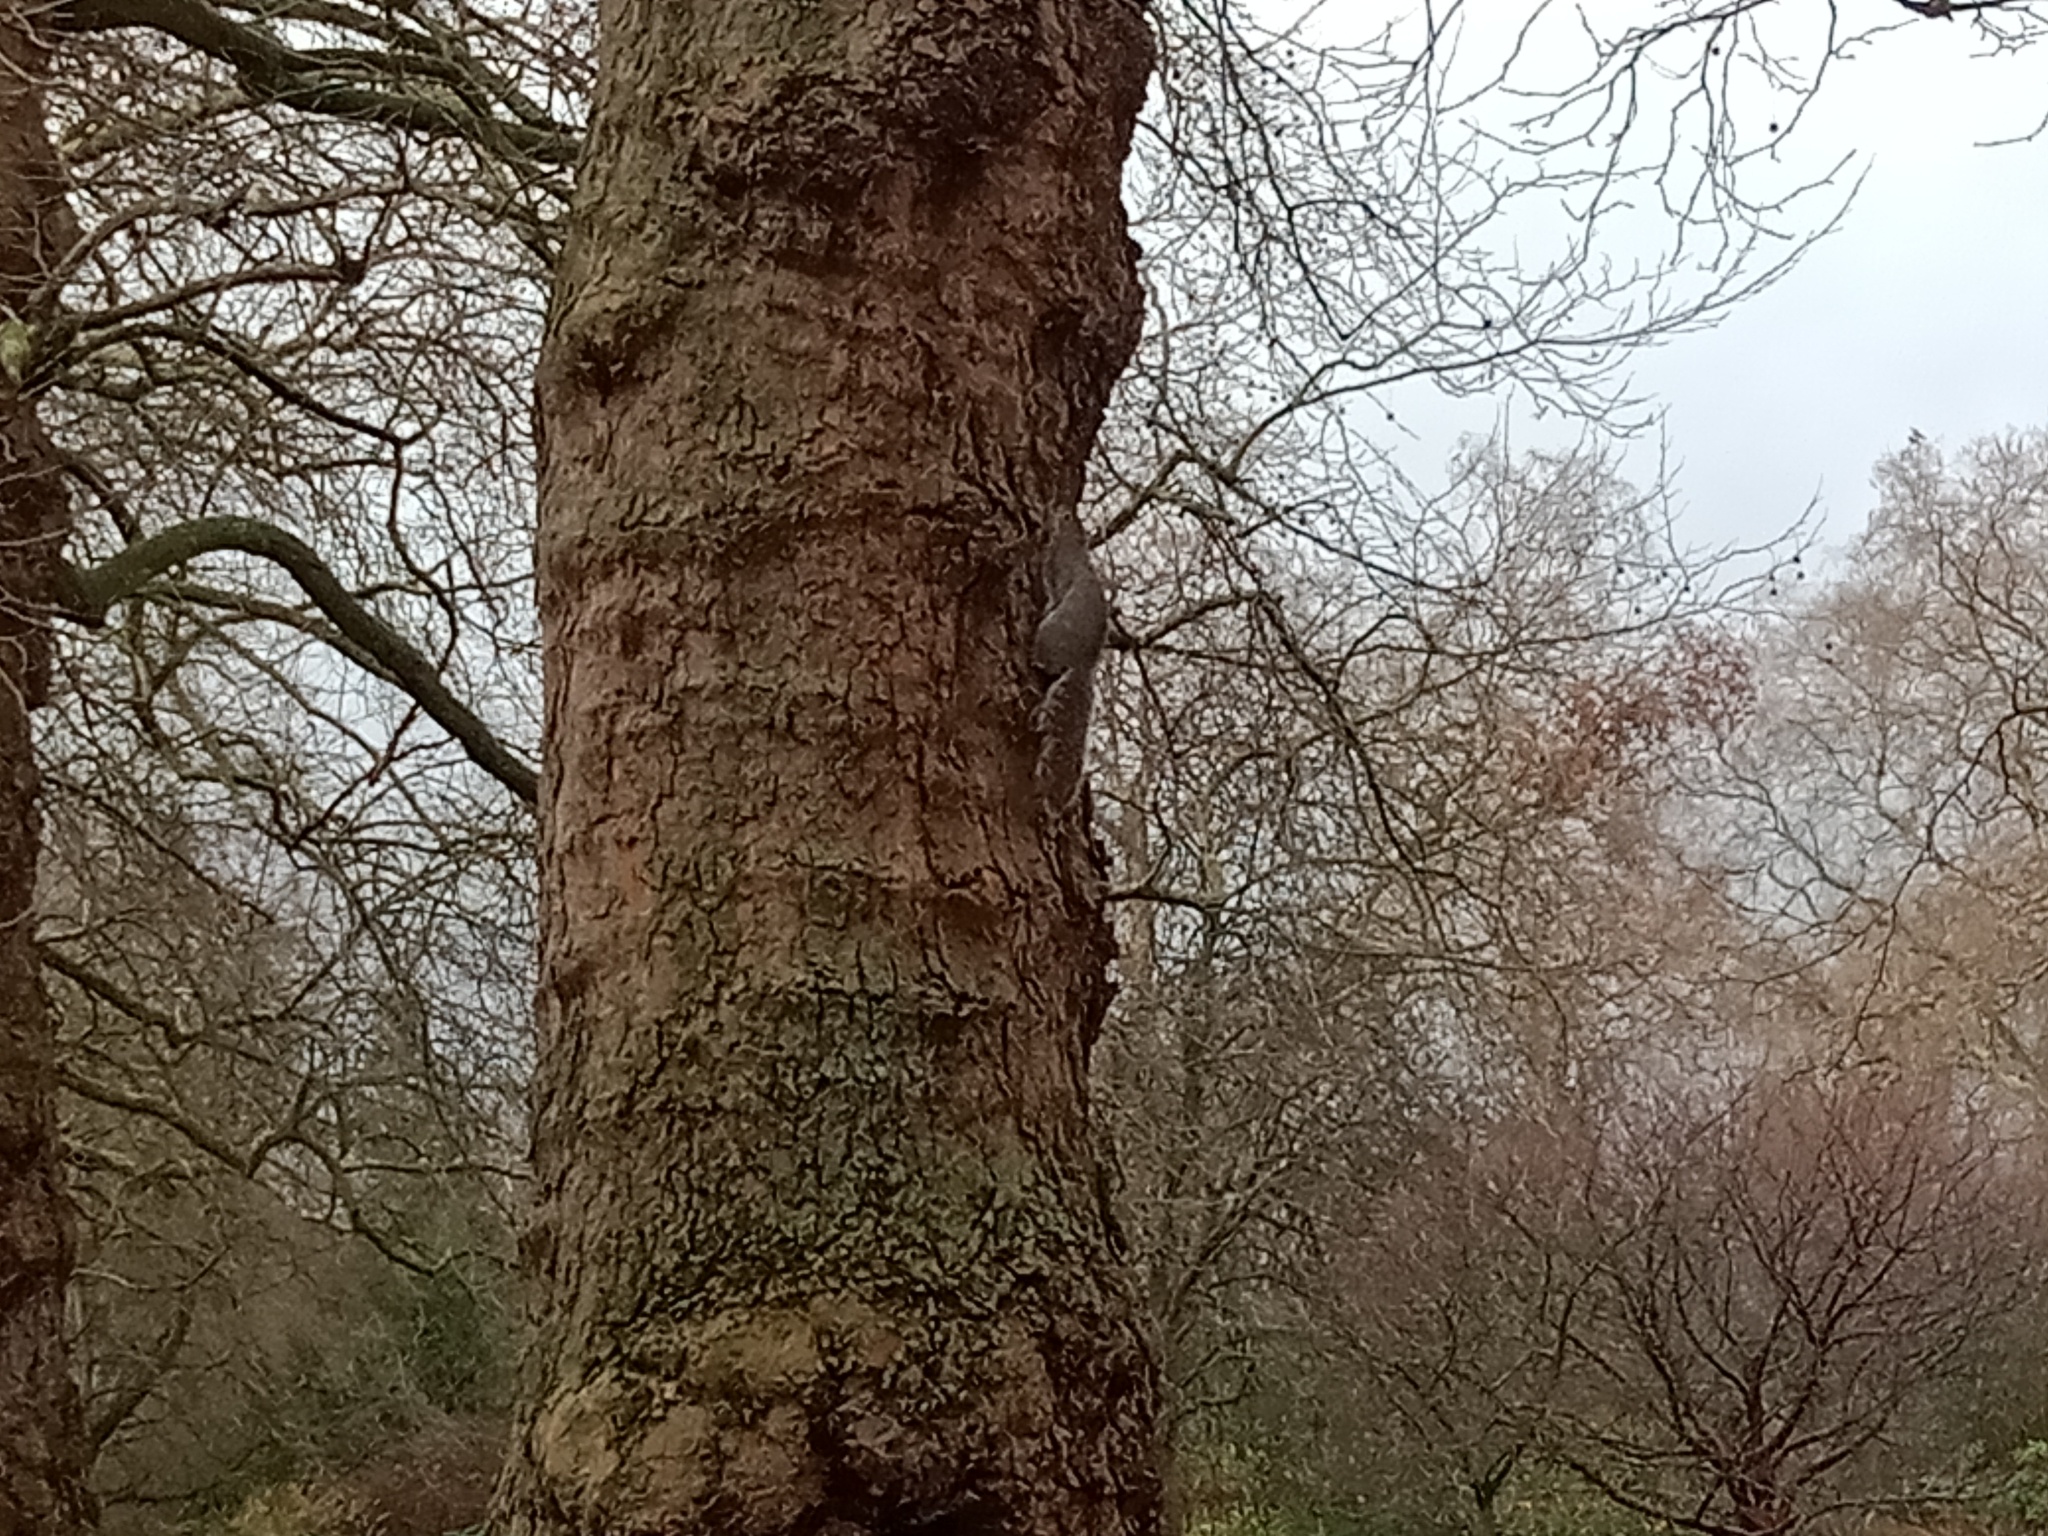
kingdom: Animalia
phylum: Chordata
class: Mammalia
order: Rodentia
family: Sciuridae
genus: Sciurus
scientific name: Sciurus carolinensis
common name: Eastern gray squirrel
